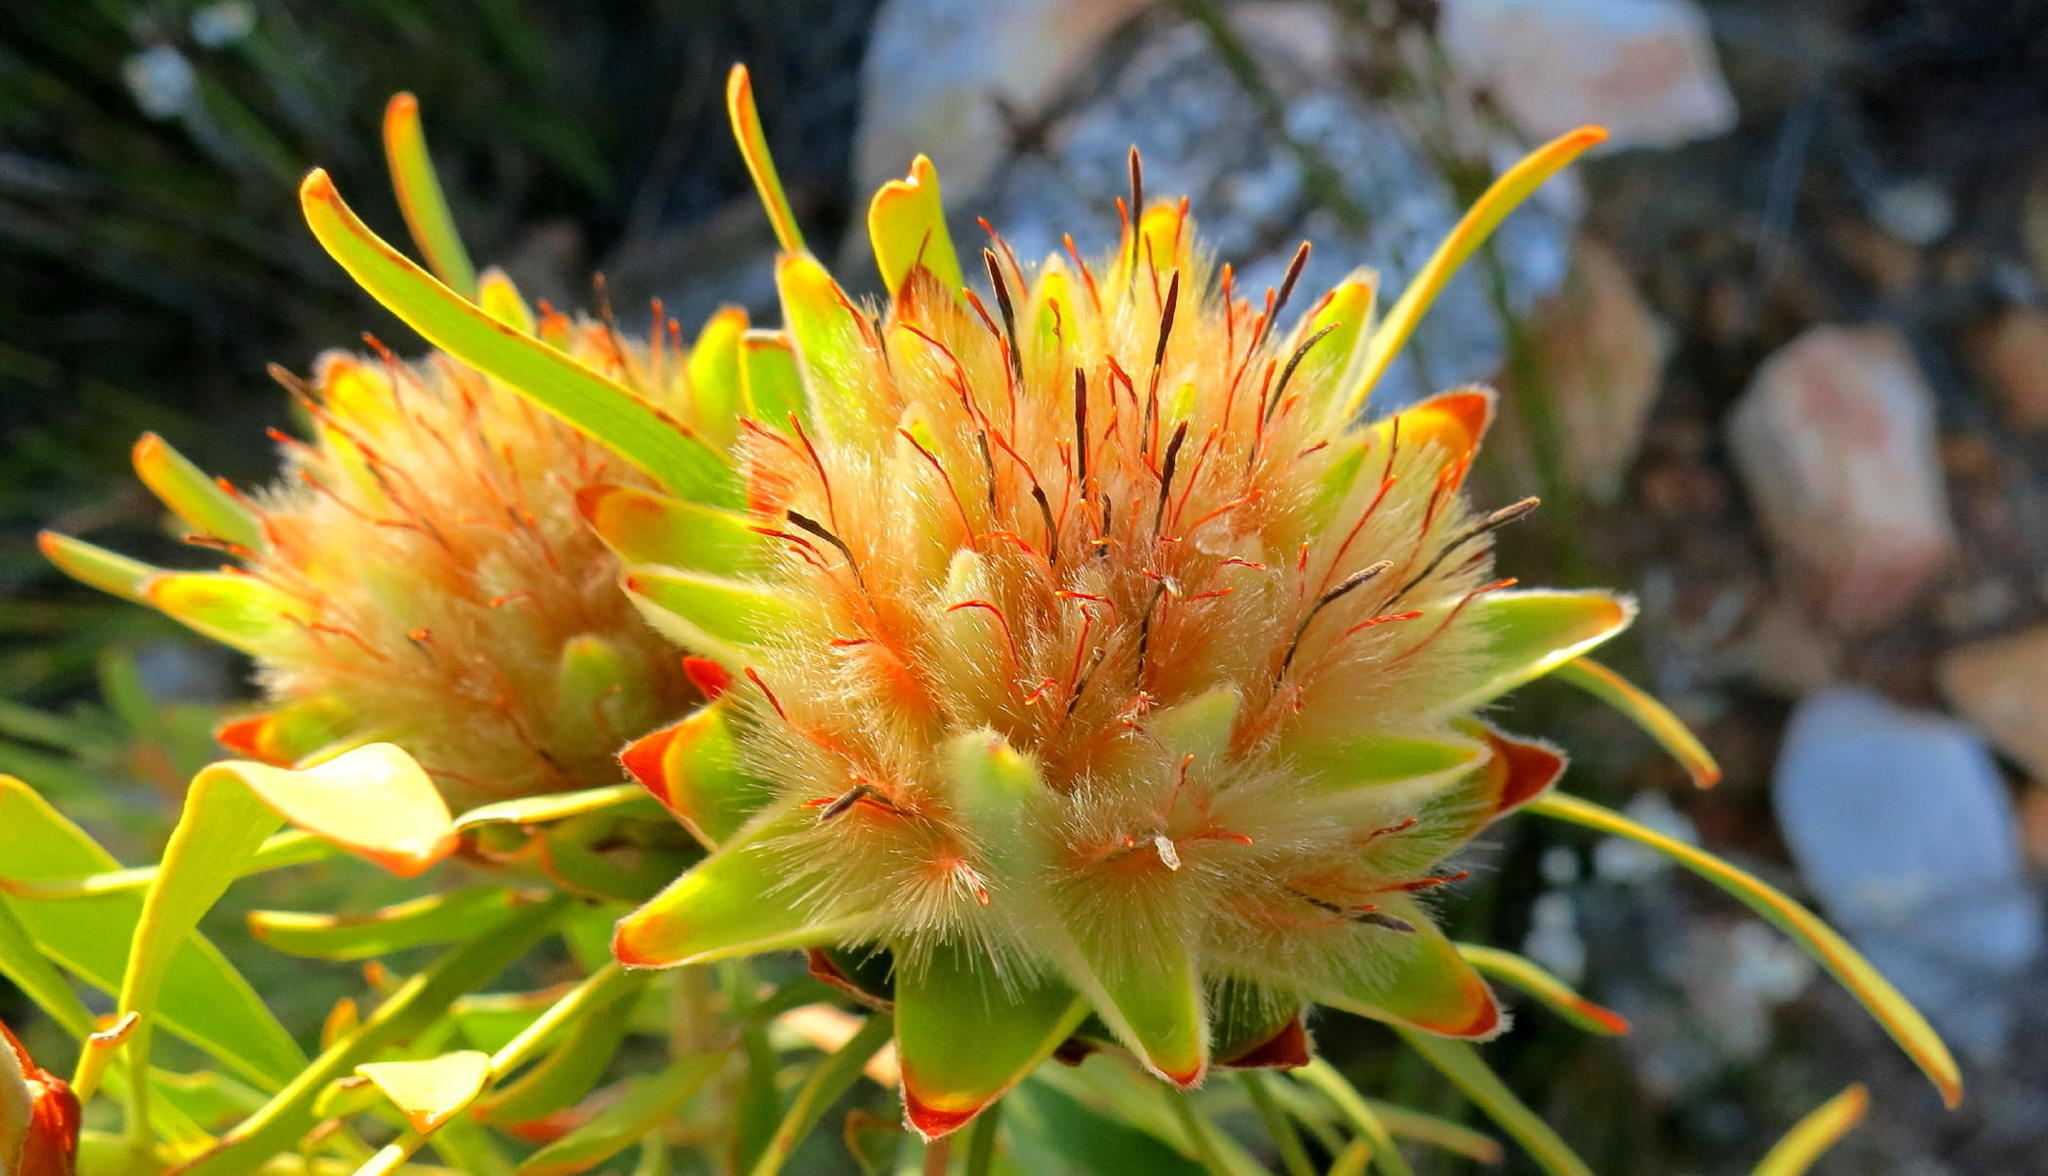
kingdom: Plantae
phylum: Tracheophyta
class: Magnoliopsida
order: Proteales
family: Proteaceae
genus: Leucadendron
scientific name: Leucadendron rubrum
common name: Spinning top
